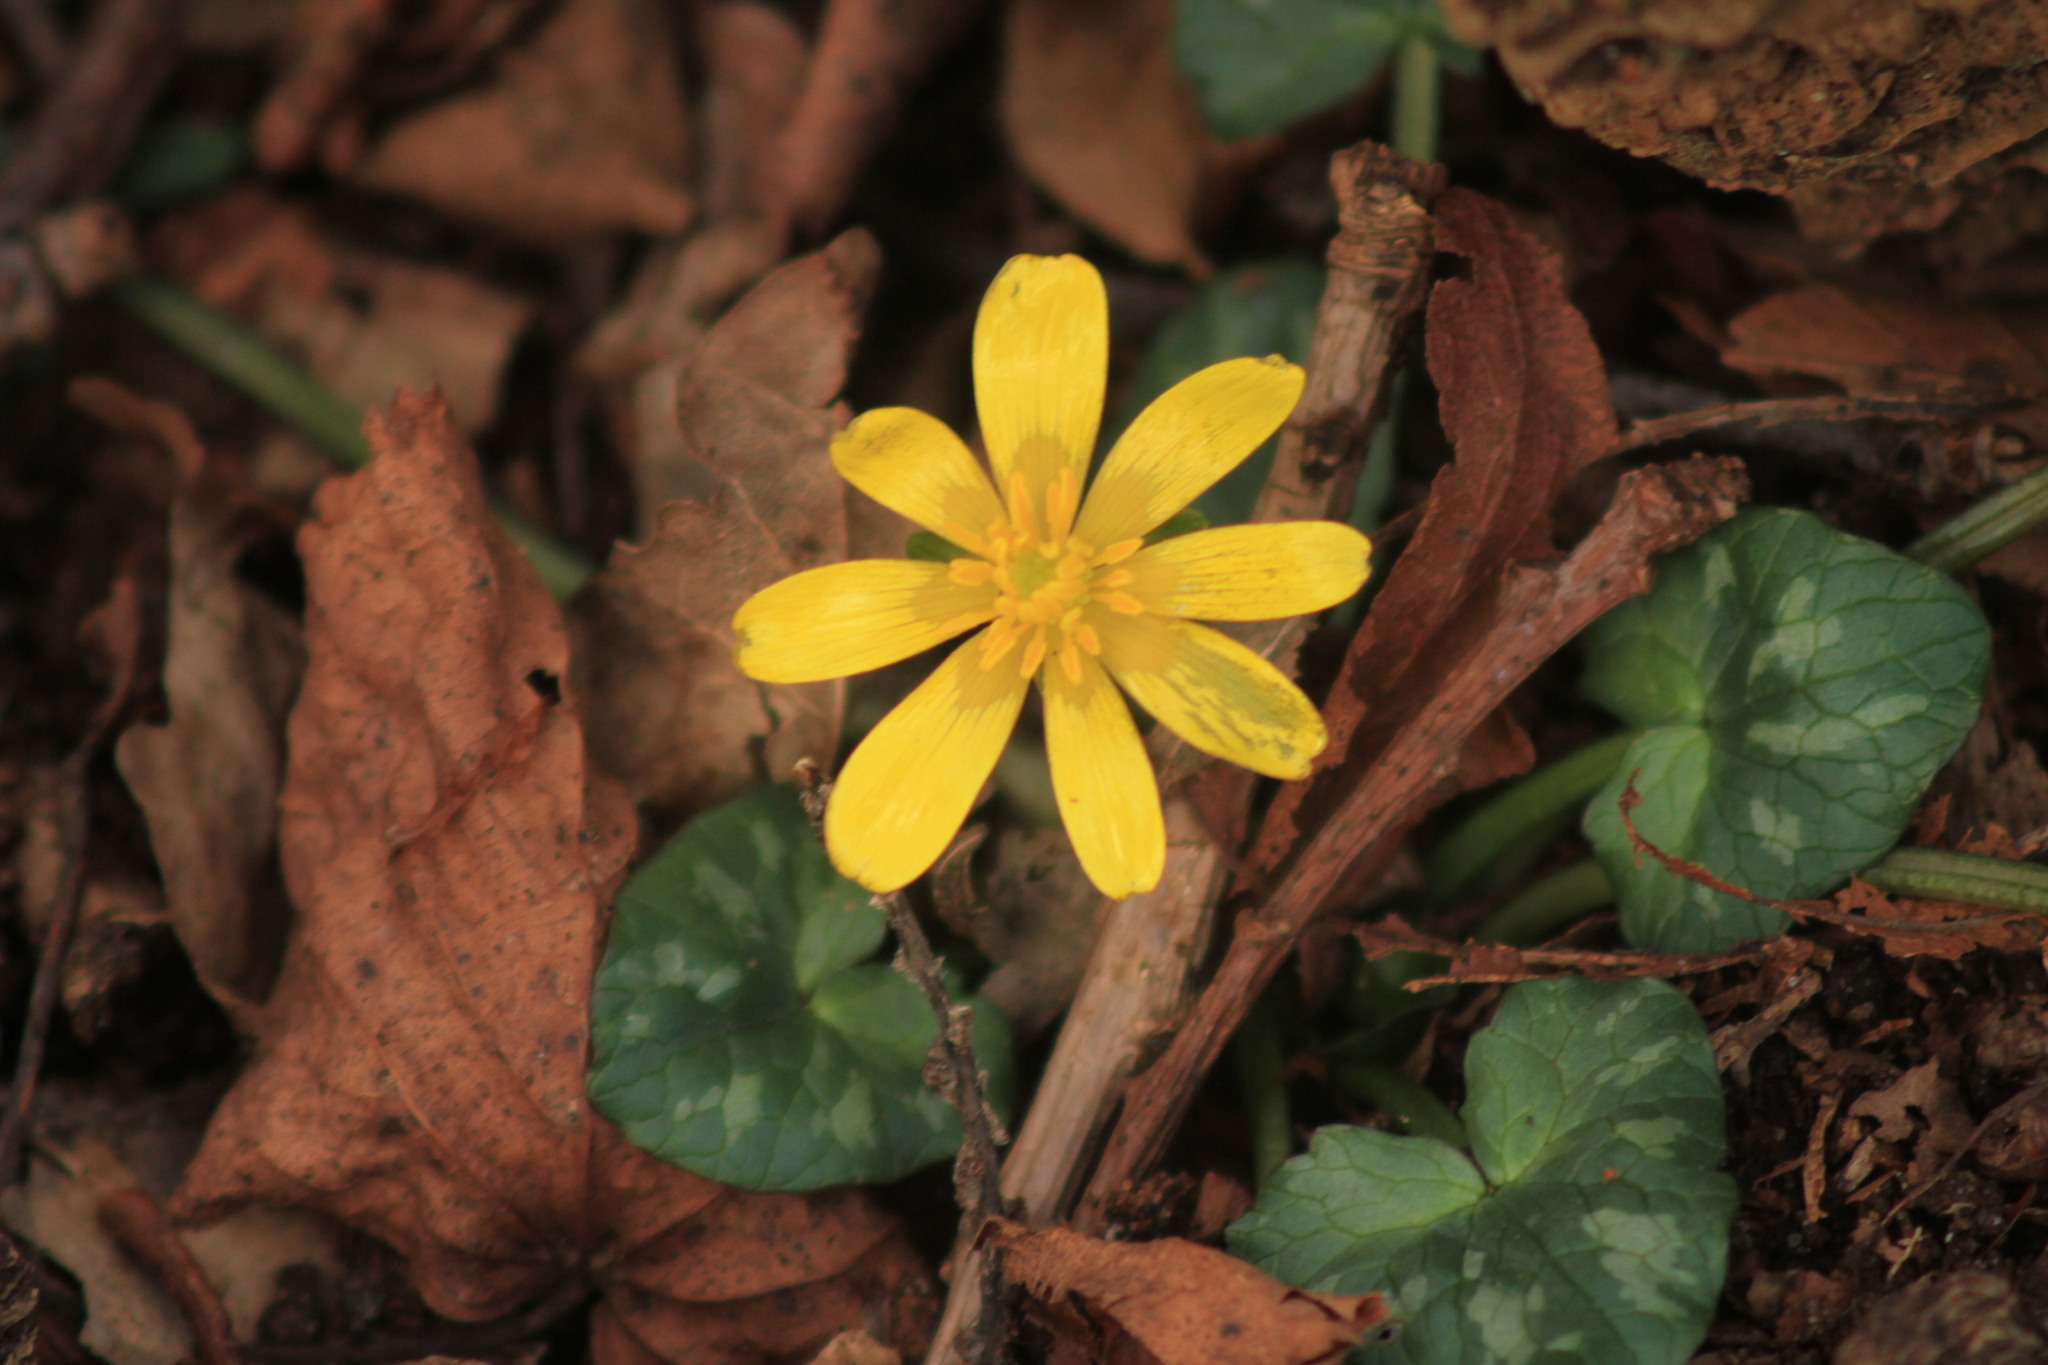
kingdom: Plantae
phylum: Tracheophyta
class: Magnoliopsida
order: Ranunculales
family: Ranunculaceae
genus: Ficaria
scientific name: Ficaria verna
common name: Lesser celandine
